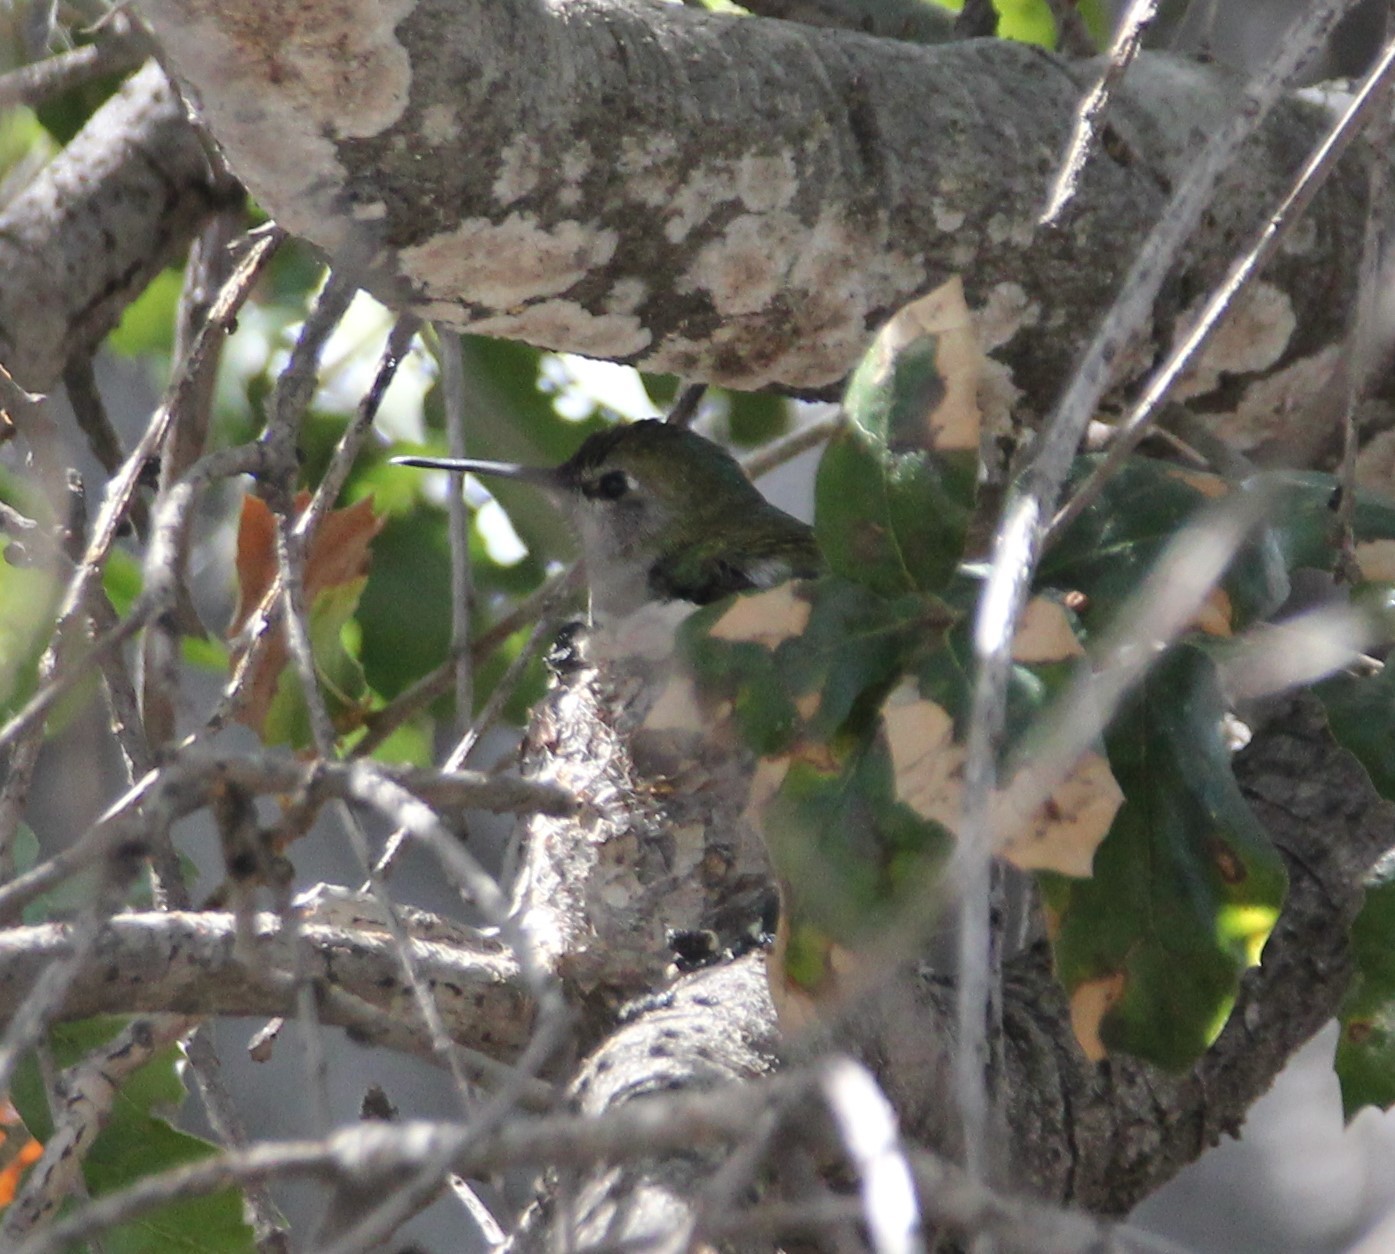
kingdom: Animalia
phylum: Chordata
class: Aves
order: Apodiformes
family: Trochilidae
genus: Calypte
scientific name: Calypte anna
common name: Anna's hummingbird
